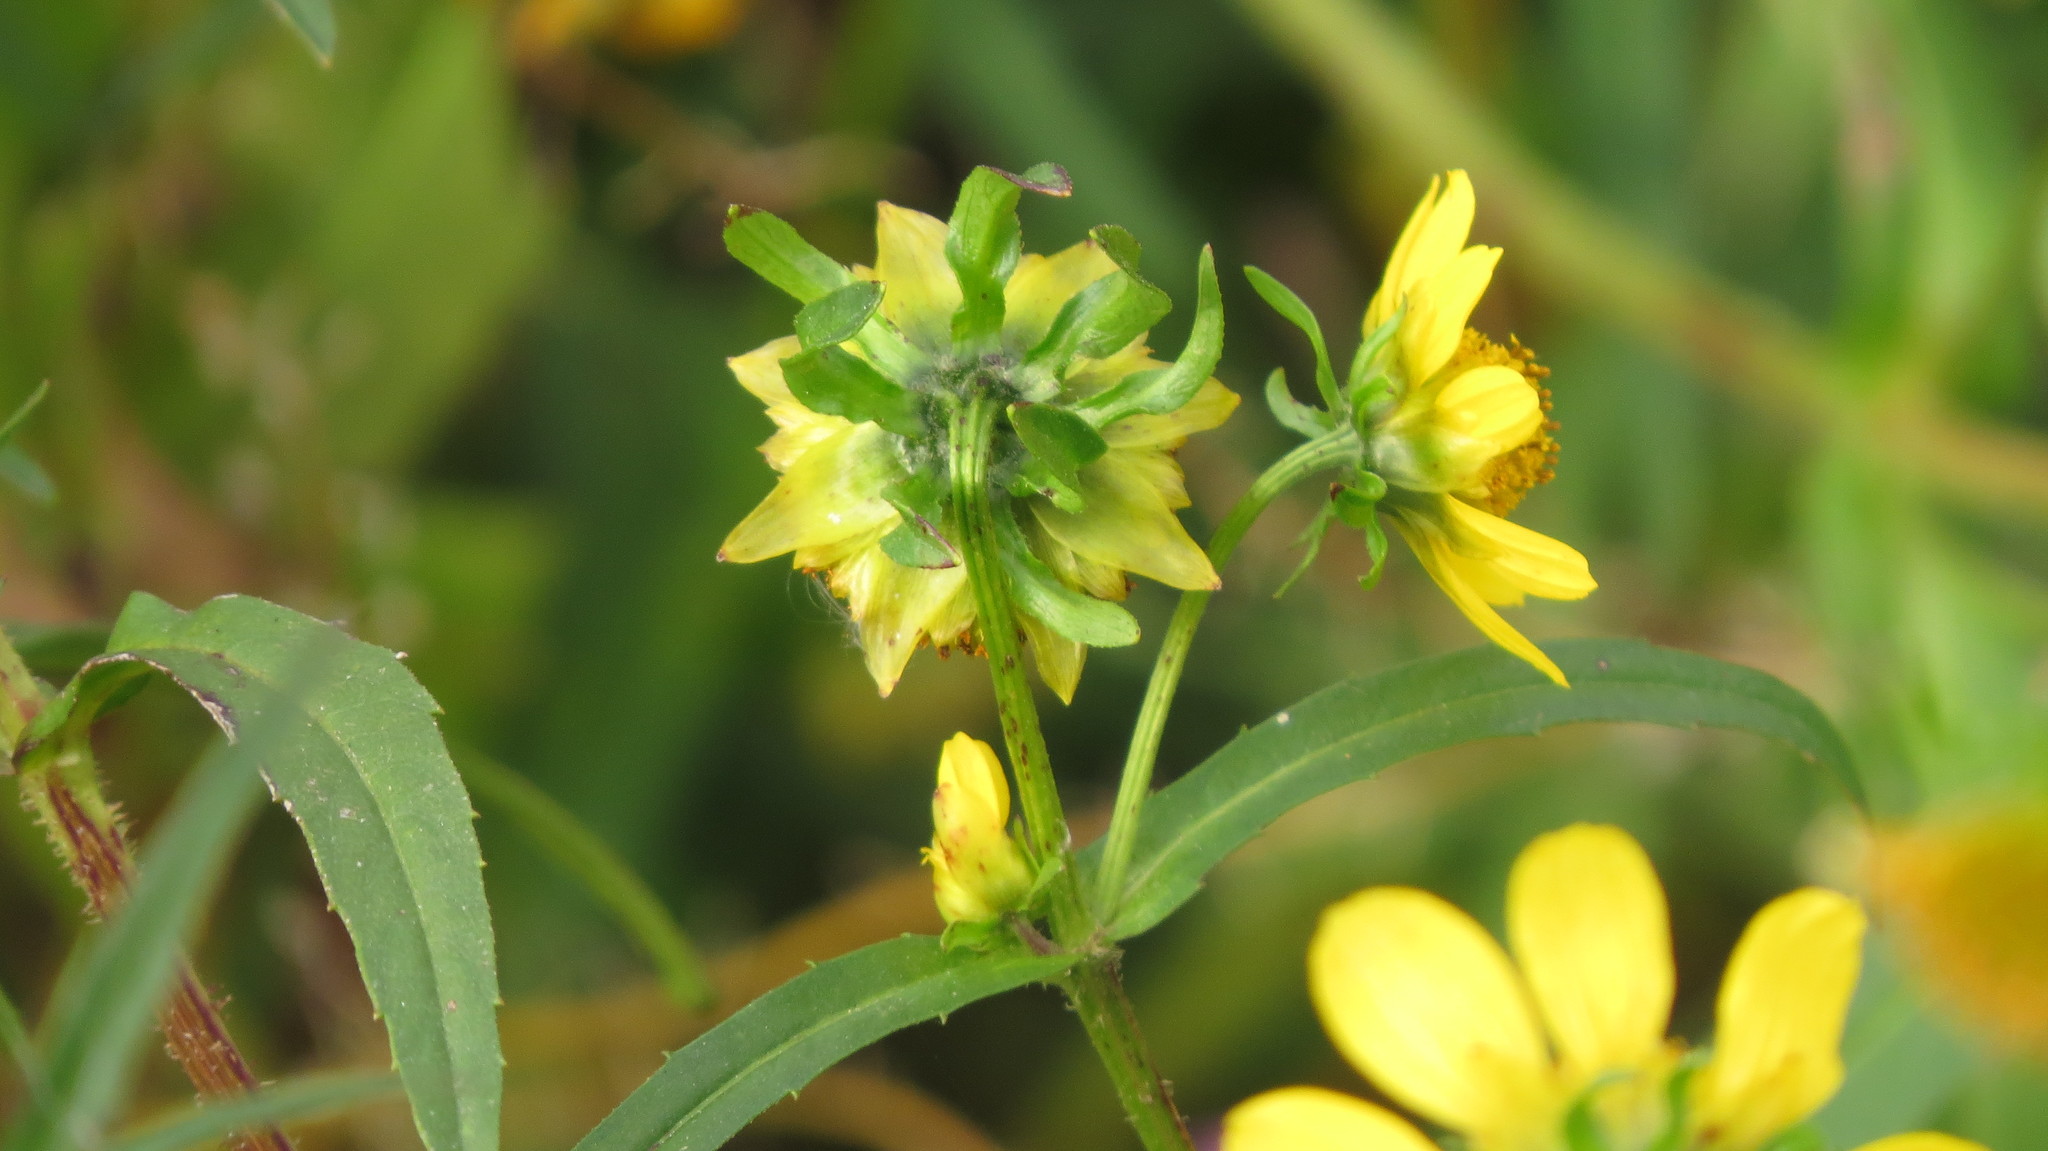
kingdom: Plantae
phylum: Tracheophyta
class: Magnoliopsida
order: Asterales
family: Asteraceae
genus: Bidens
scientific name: Bidens cernua
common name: Nodding bur-marigold
